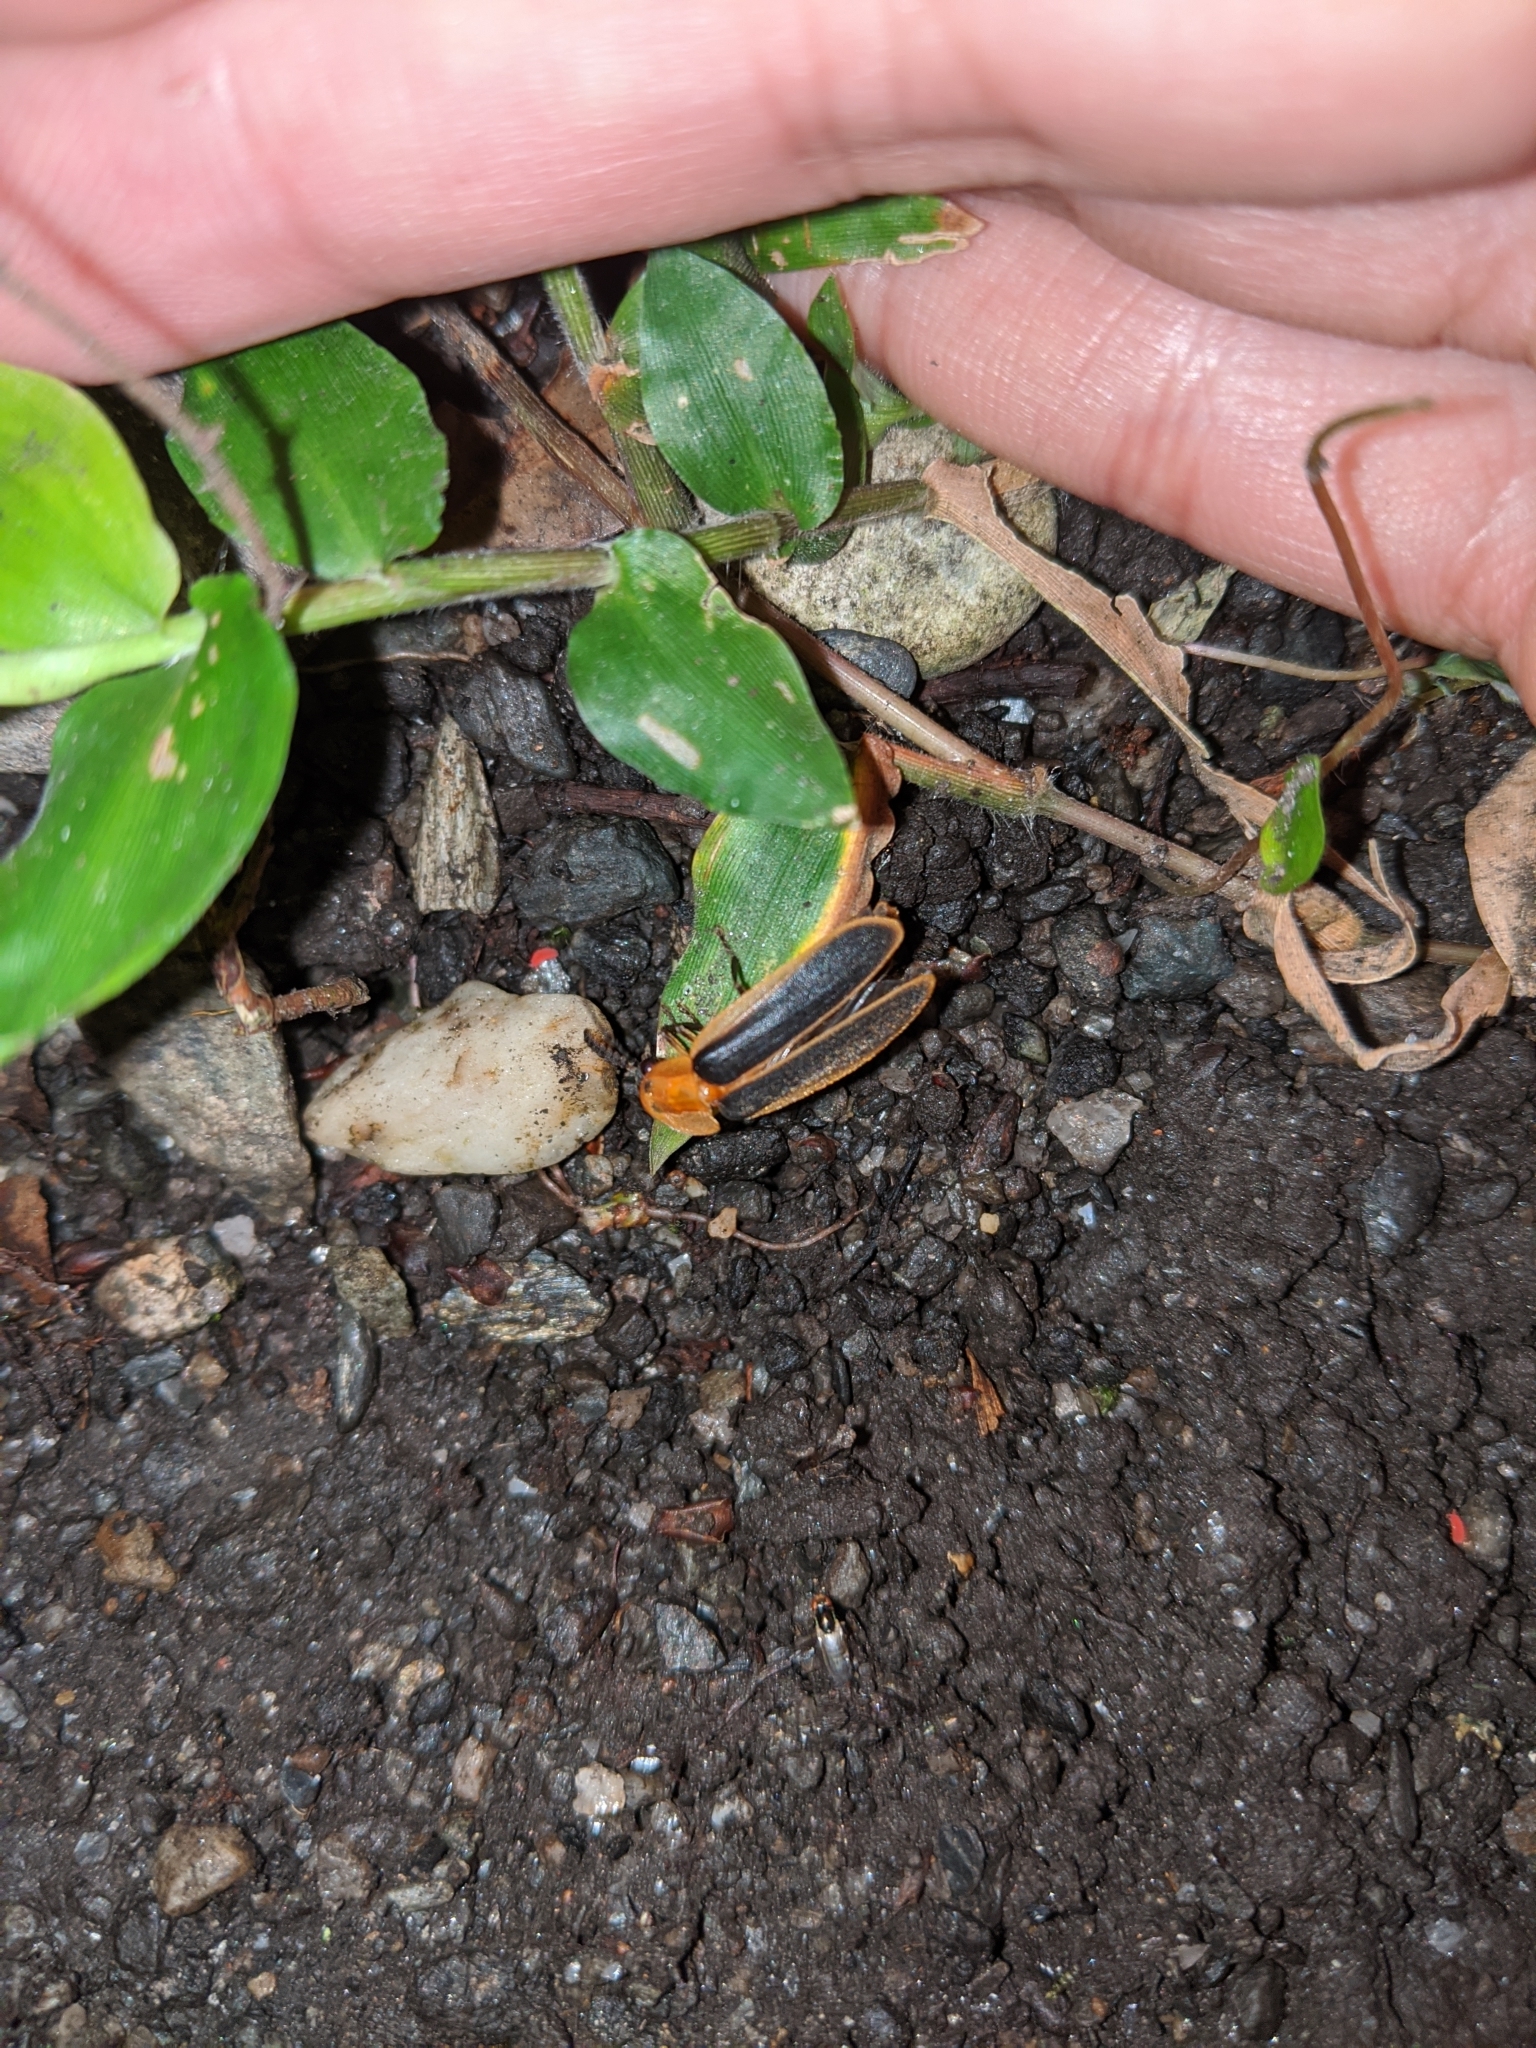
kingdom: Animalia
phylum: Arthropoda
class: Insecta
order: Coleoptera
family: Lampyridae
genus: Pyrocoelia
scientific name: Pyrocoelia analis
